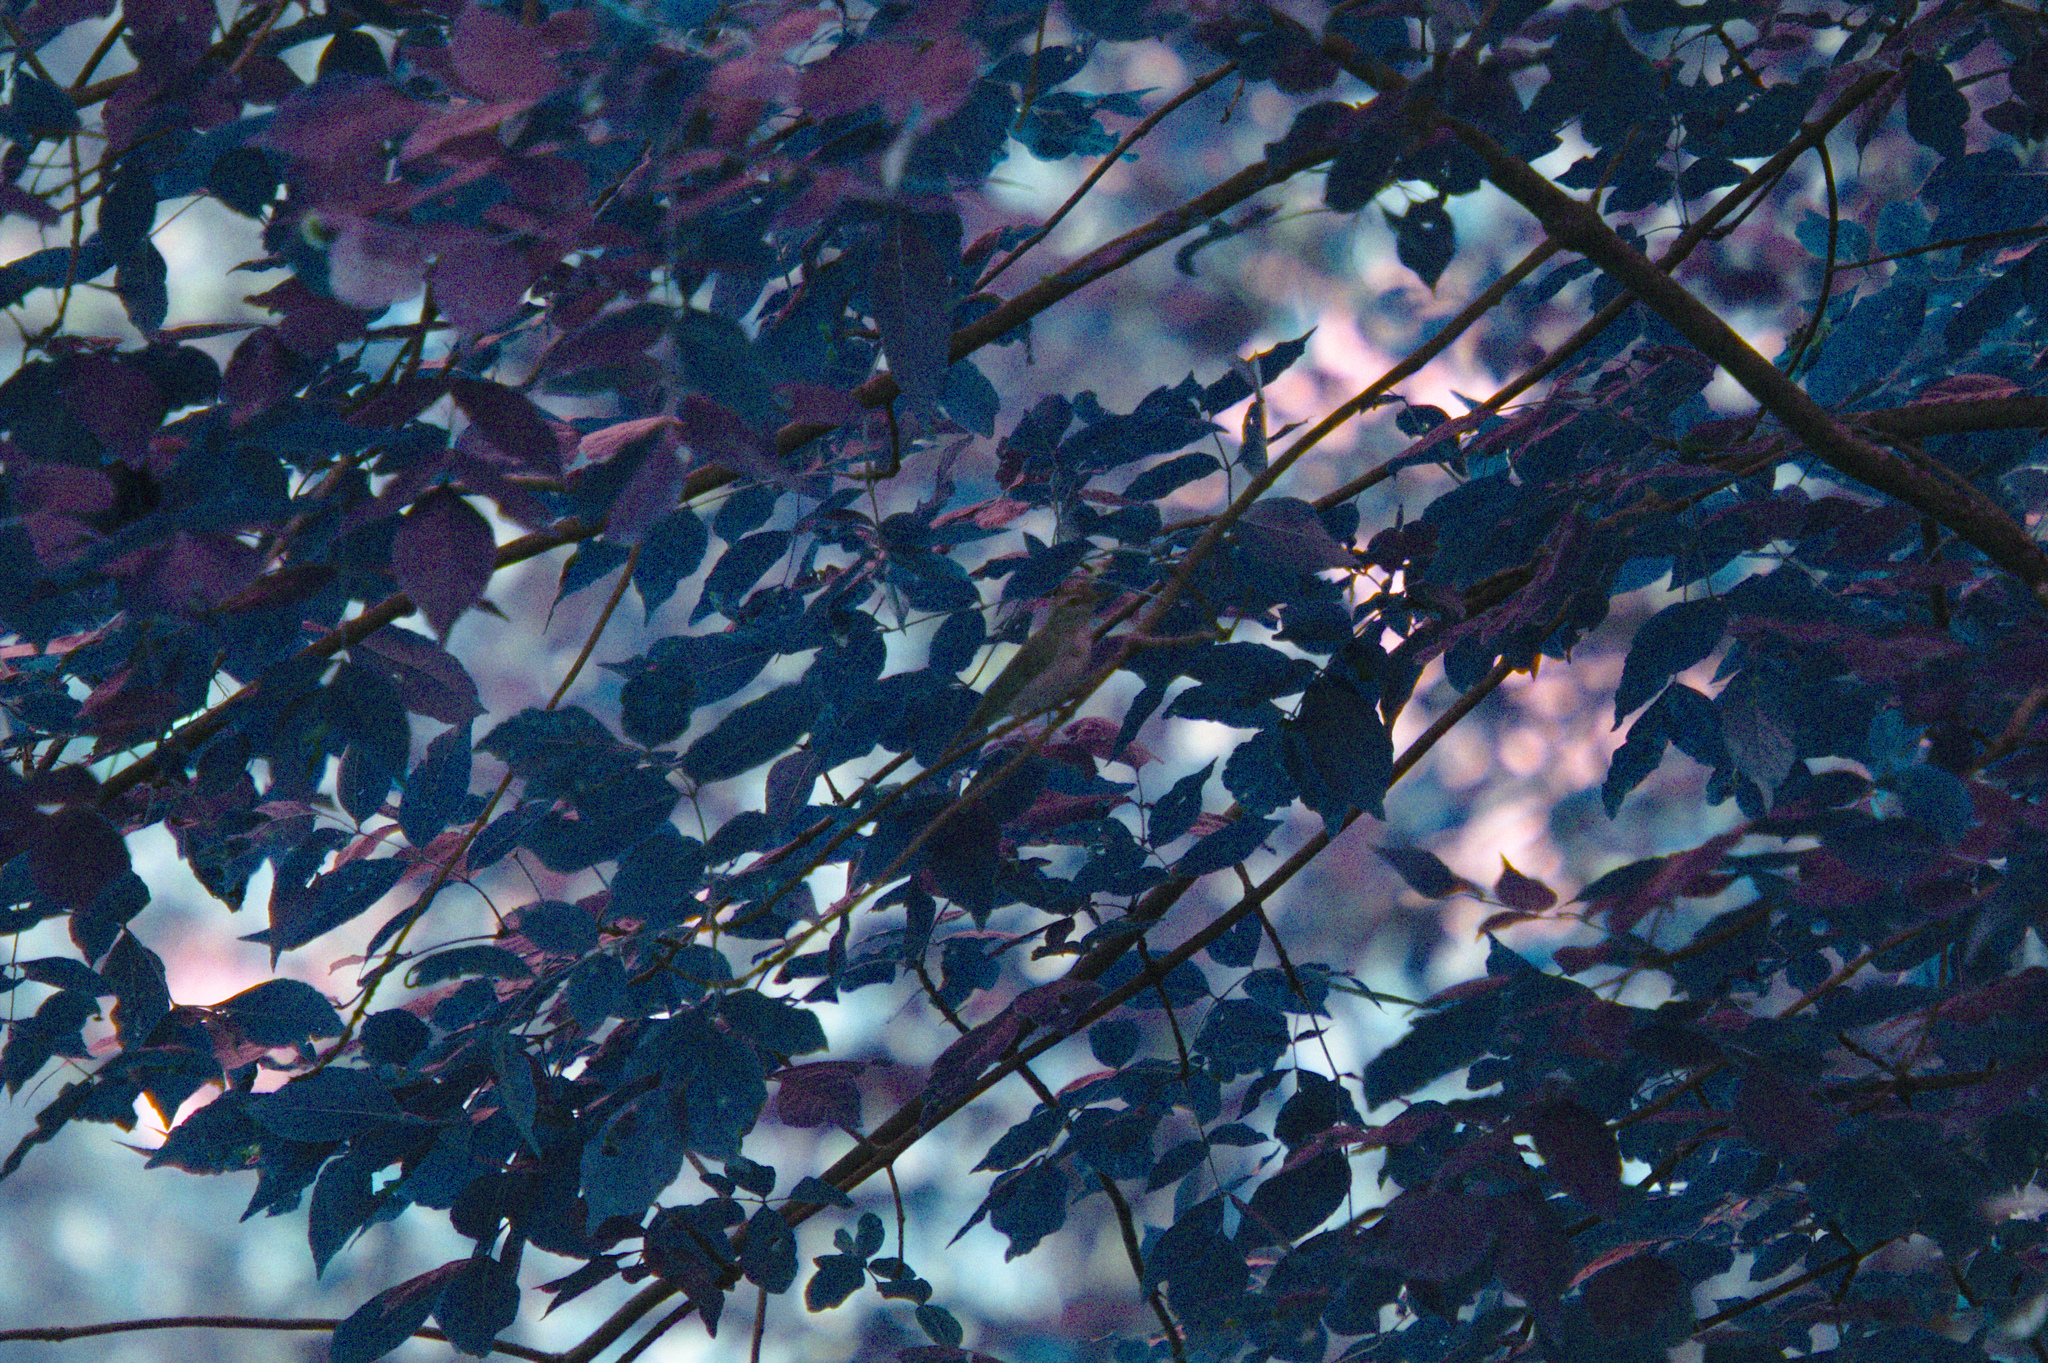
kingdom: Animalia
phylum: Chordata
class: Aves
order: Passeriformes
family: Vireonidae
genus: Vireo
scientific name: Vireo olivaceus
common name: Red-eyed vireo
